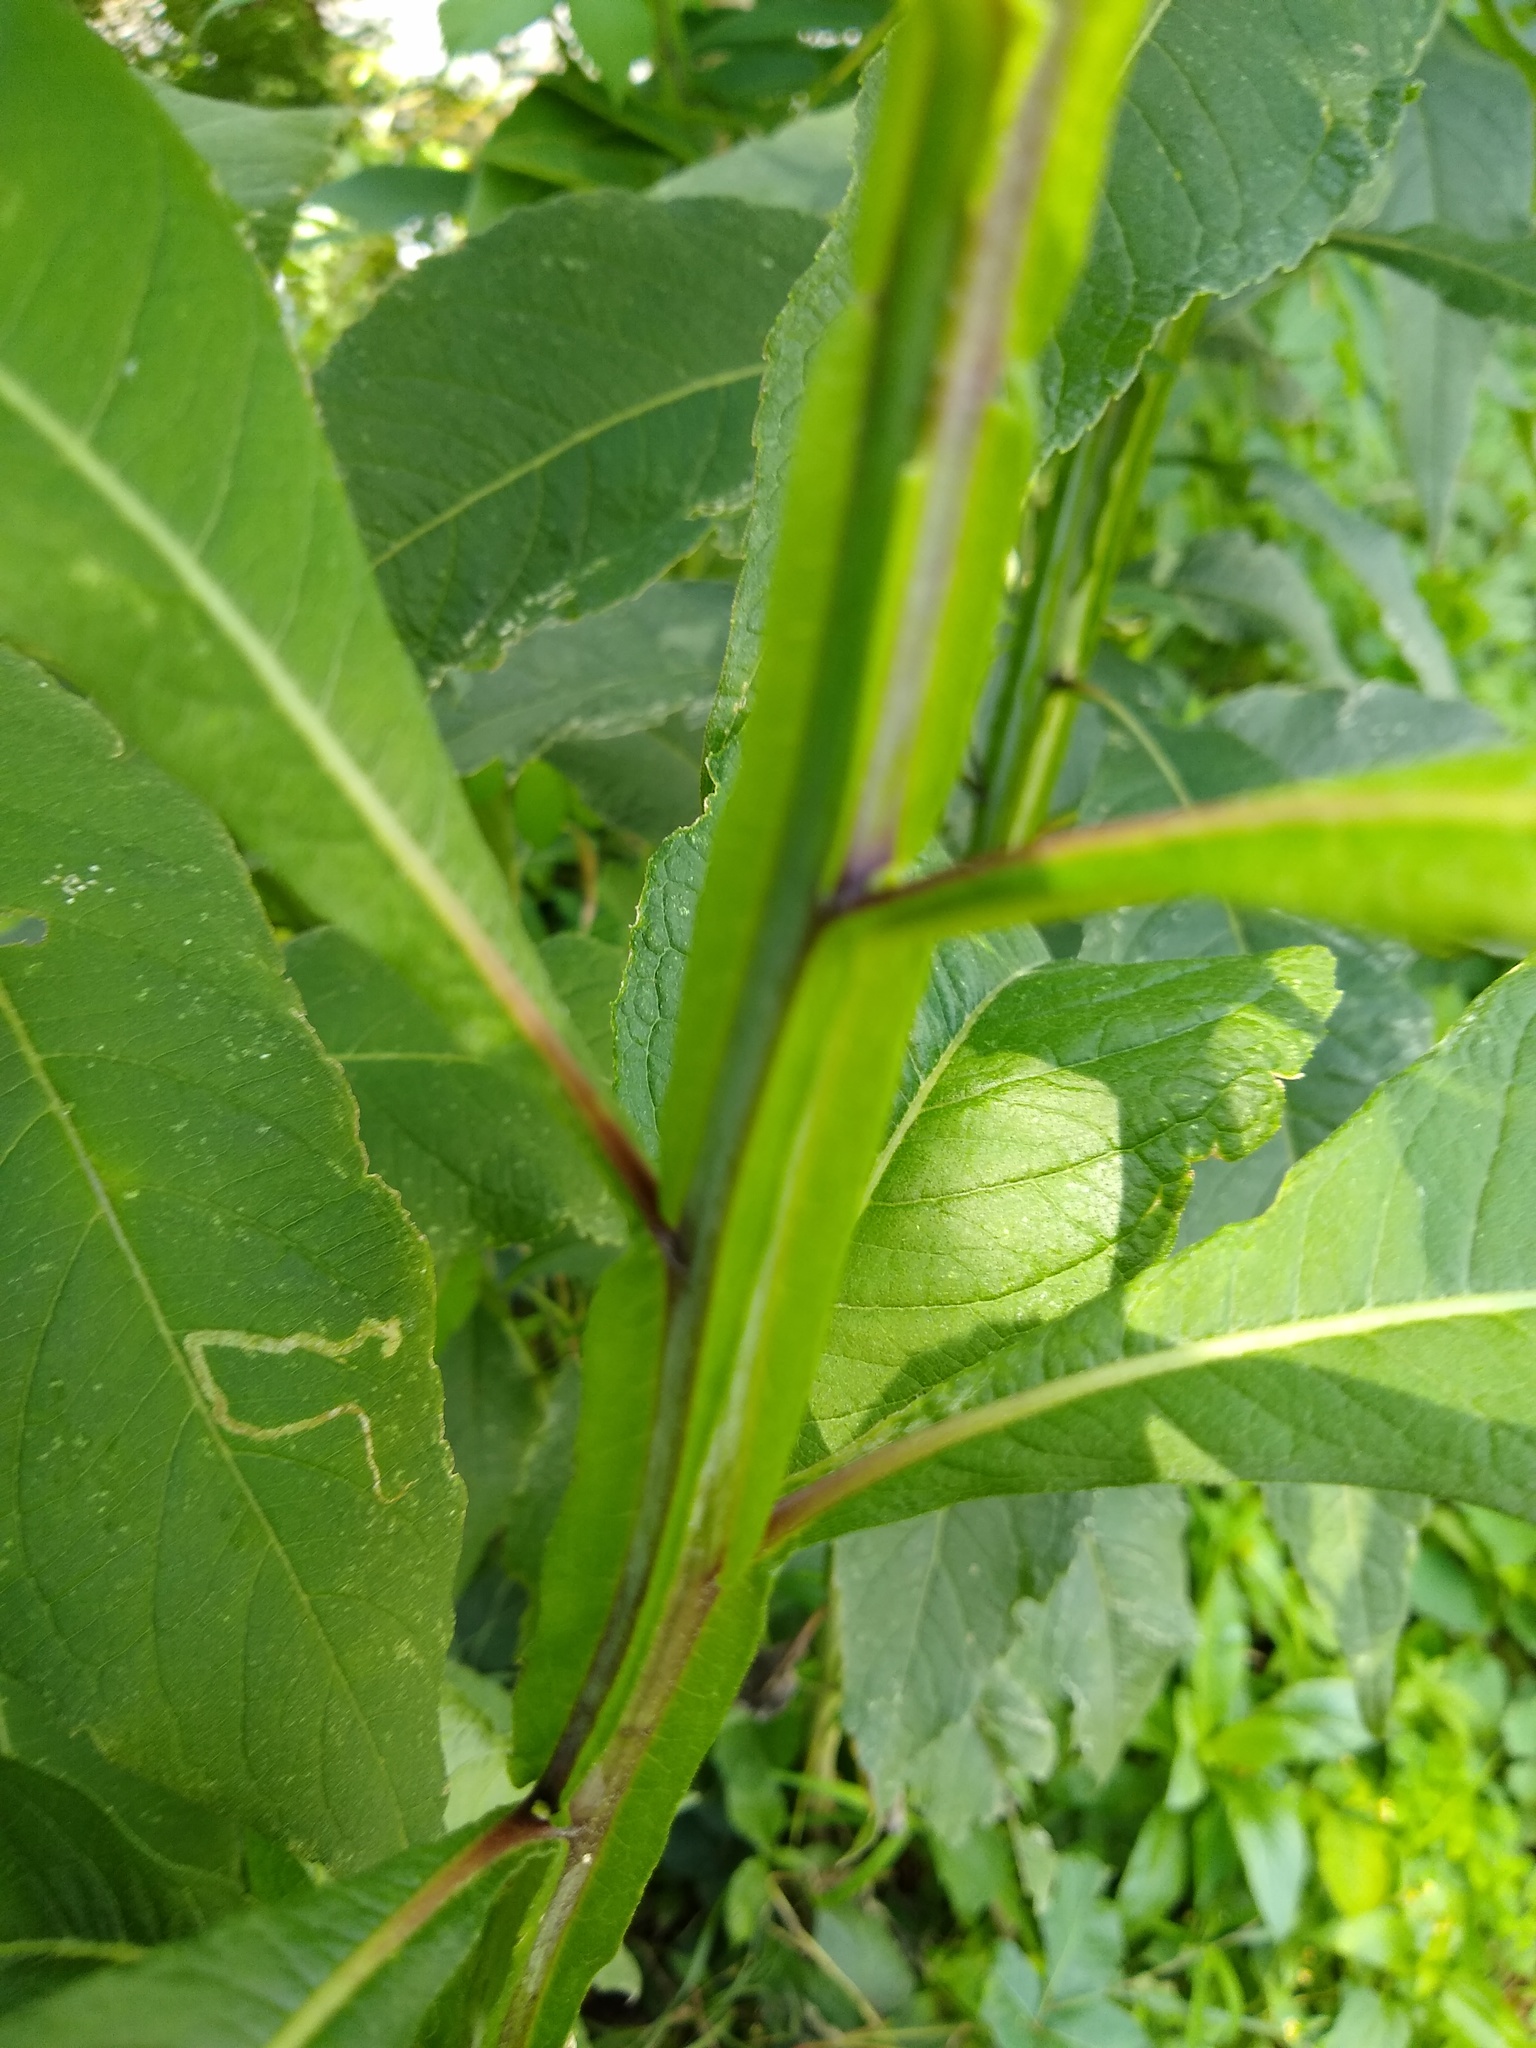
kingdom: Plantae
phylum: Tracheophyta
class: Magnoliopsida
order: Asterales
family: Asteraceae
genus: Verbesina
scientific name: Verbesina alternifolia
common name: Wingstem
